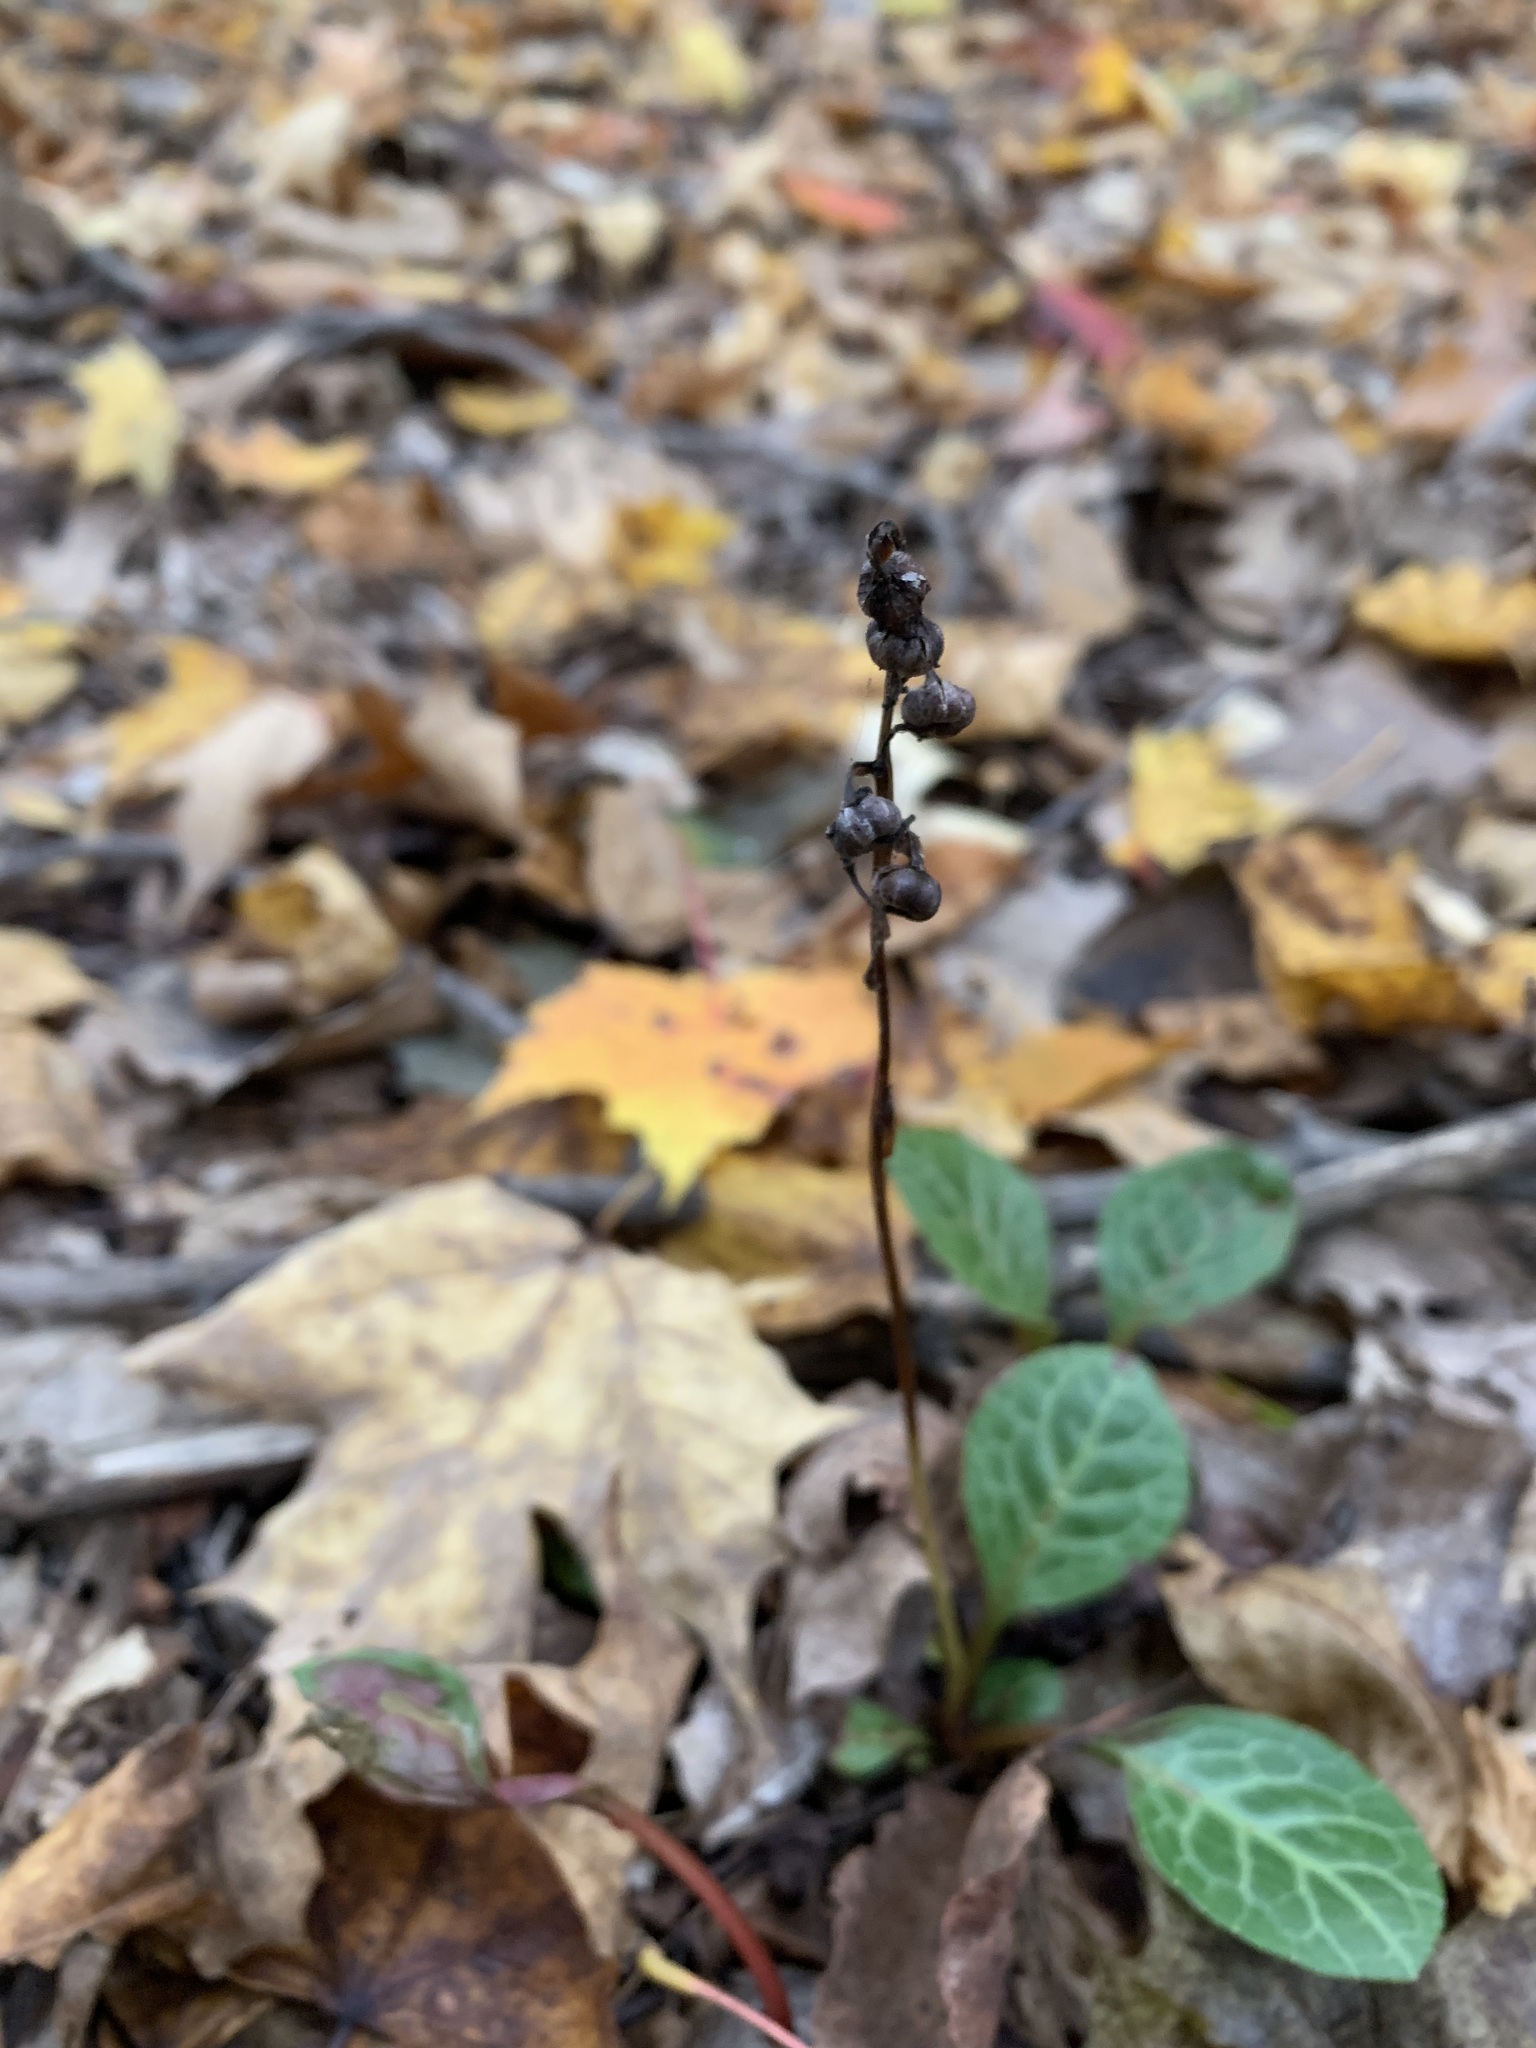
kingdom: Plantae
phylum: Tracheophyta
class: Magnoliopsida
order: Ericales
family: Ericaceae
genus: Pyrola
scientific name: Pyrola americana
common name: American wintergreen
